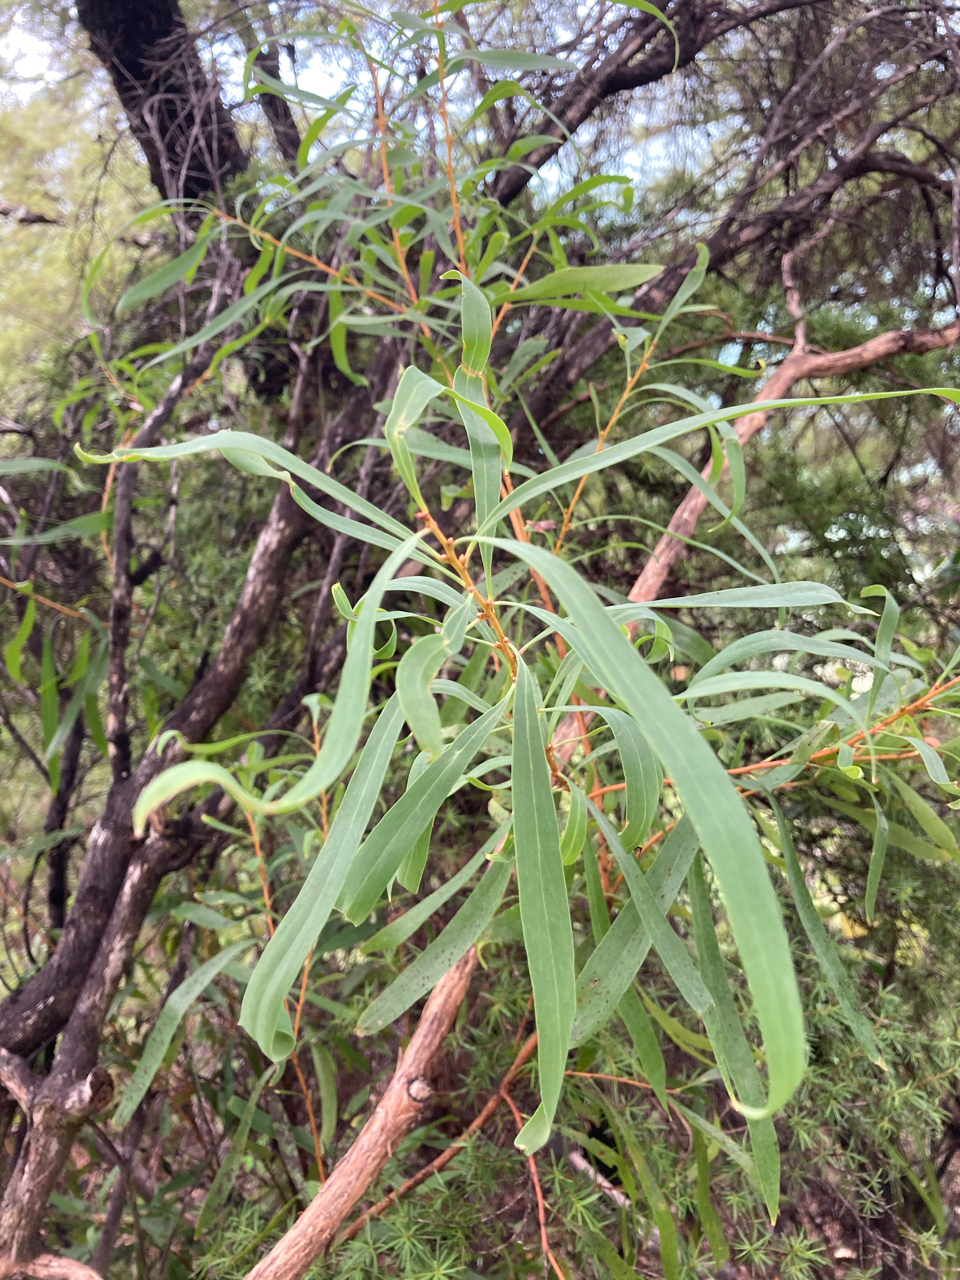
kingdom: Plantae
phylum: Tracheophyta
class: Magnoliopsida
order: Proteales
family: Proteaceae
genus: Hakea
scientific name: Hakea salicifolia
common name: Willow hakea
